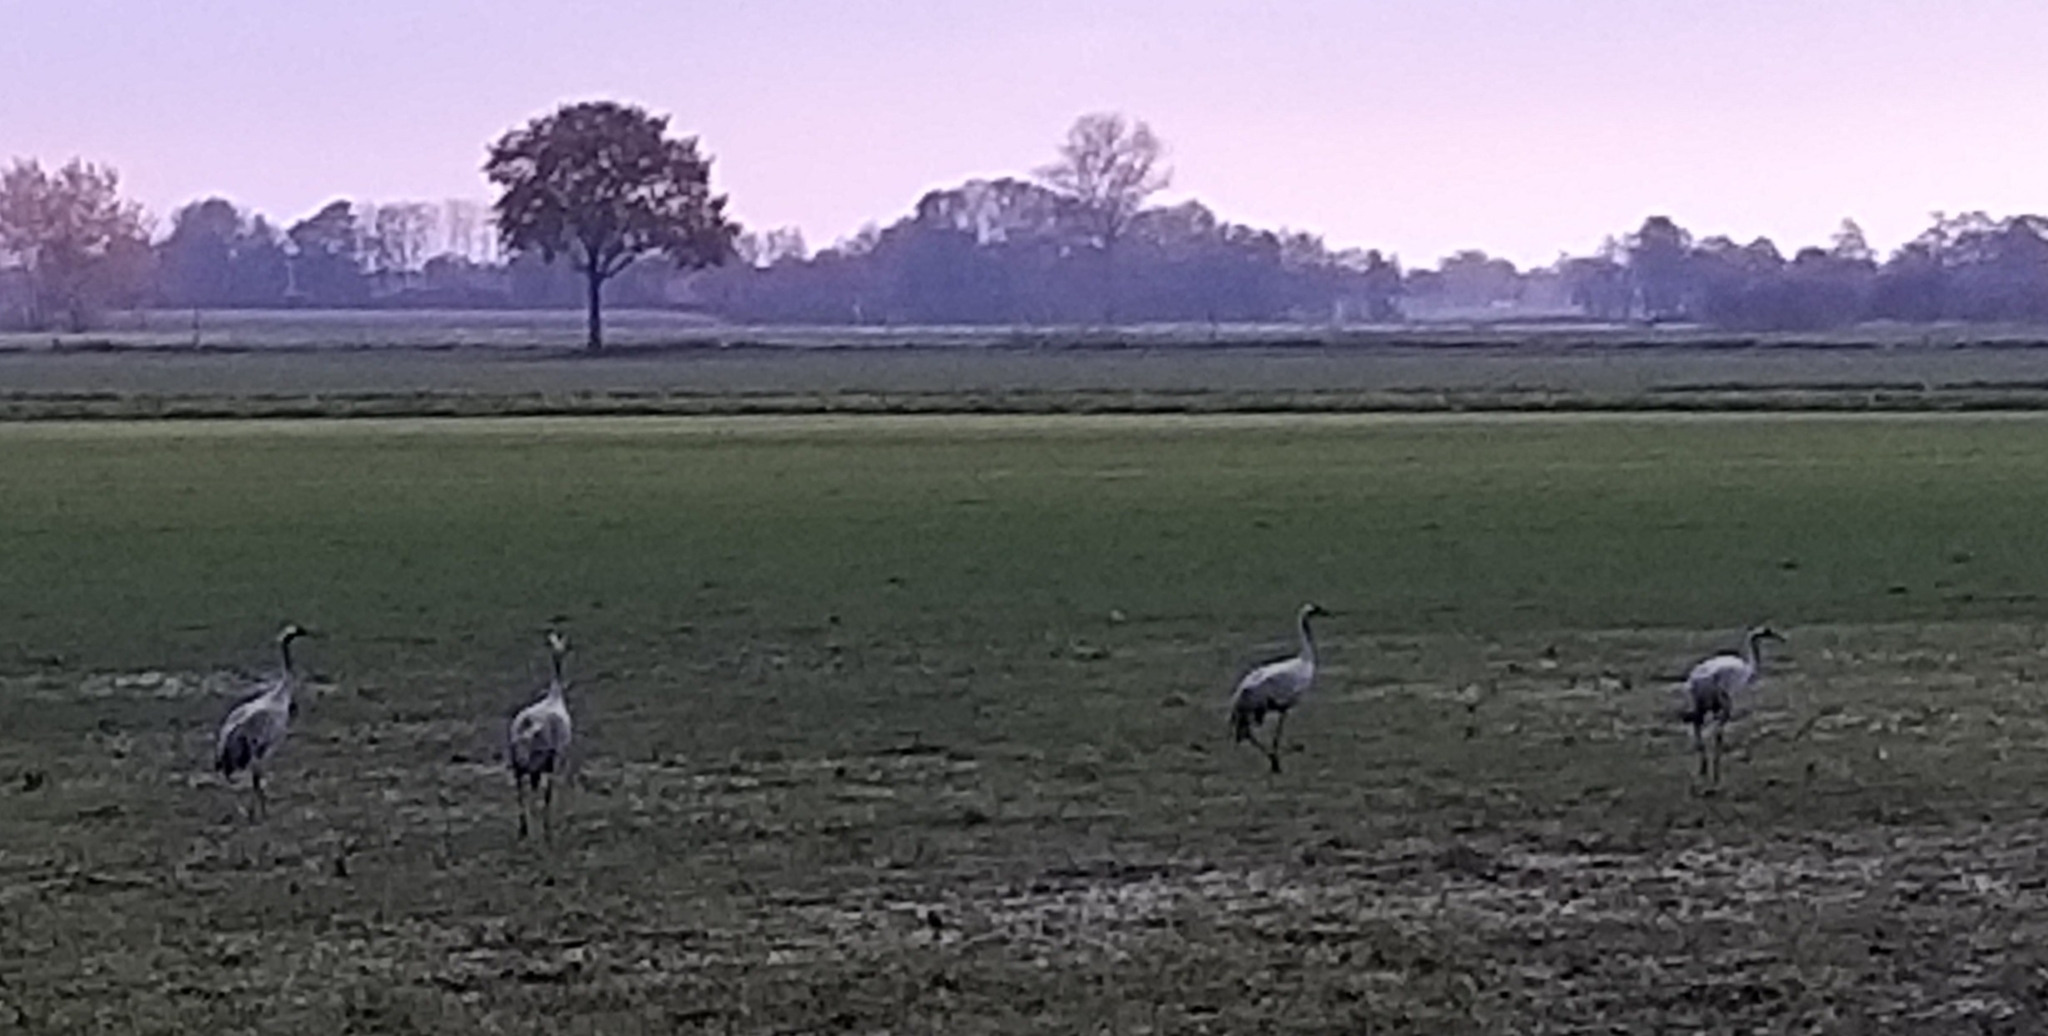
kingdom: Animalia
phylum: Chordata
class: Aves
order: Gruiformes
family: Gruidae
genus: Grus
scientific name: Grus grus
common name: Common crane
